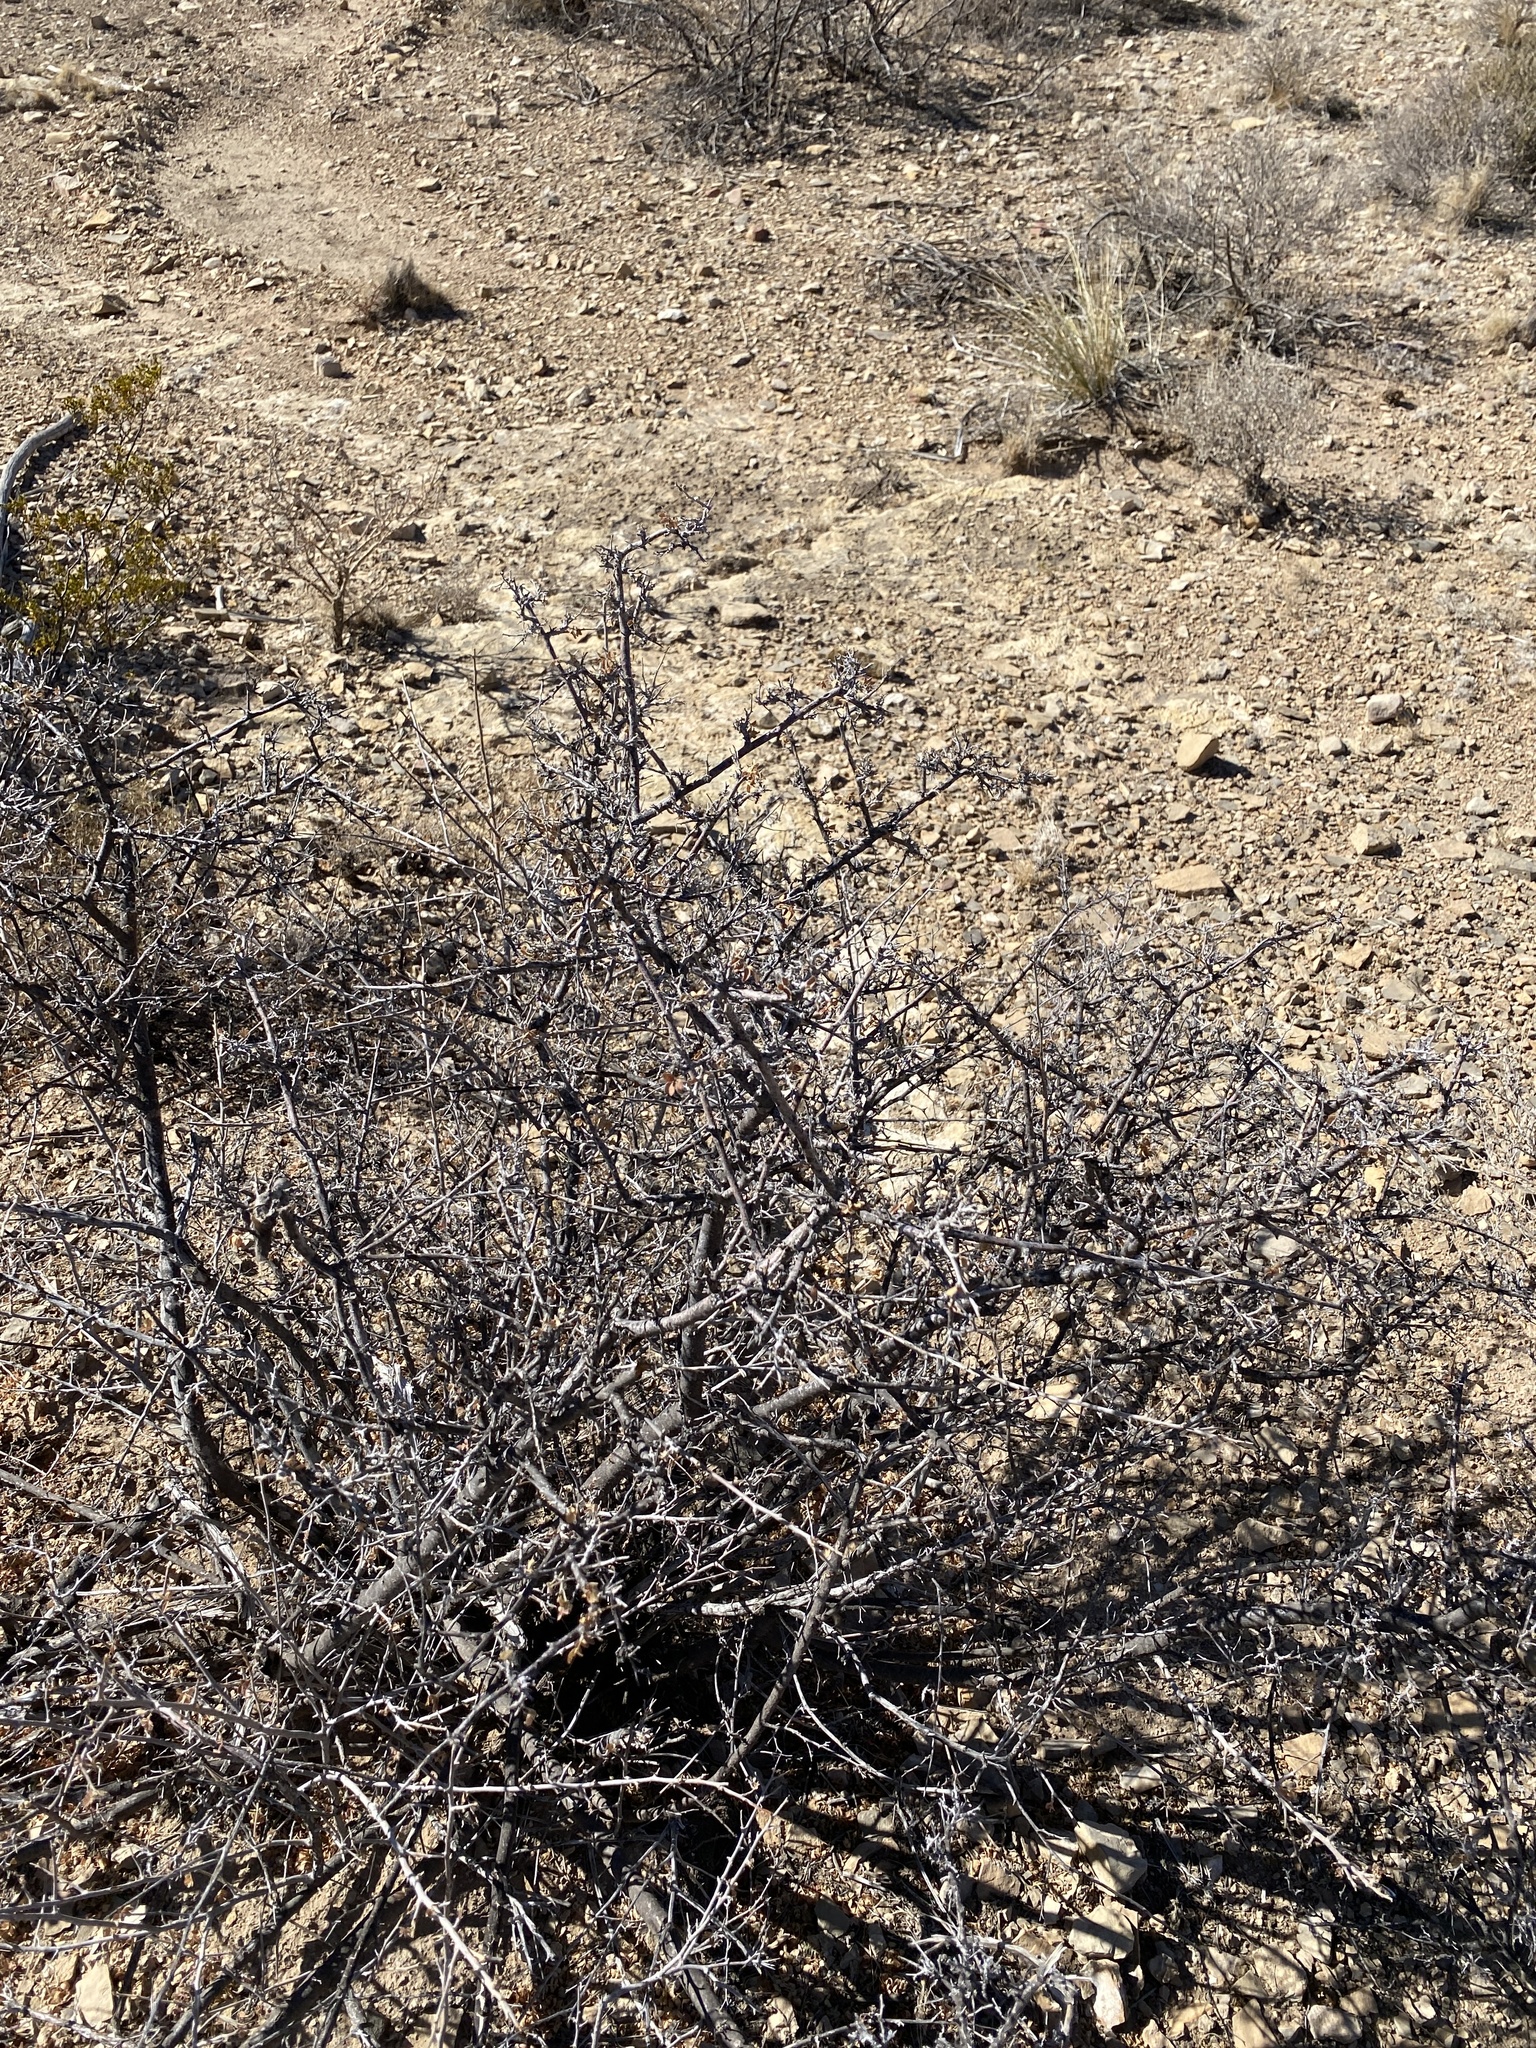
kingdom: Plantae
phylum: Tracheophyta
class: Magnoliopsida
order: Sapindales
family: Anacardiaceae
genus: Rhus
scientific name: Rhus microphylla
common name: Desert sumac
